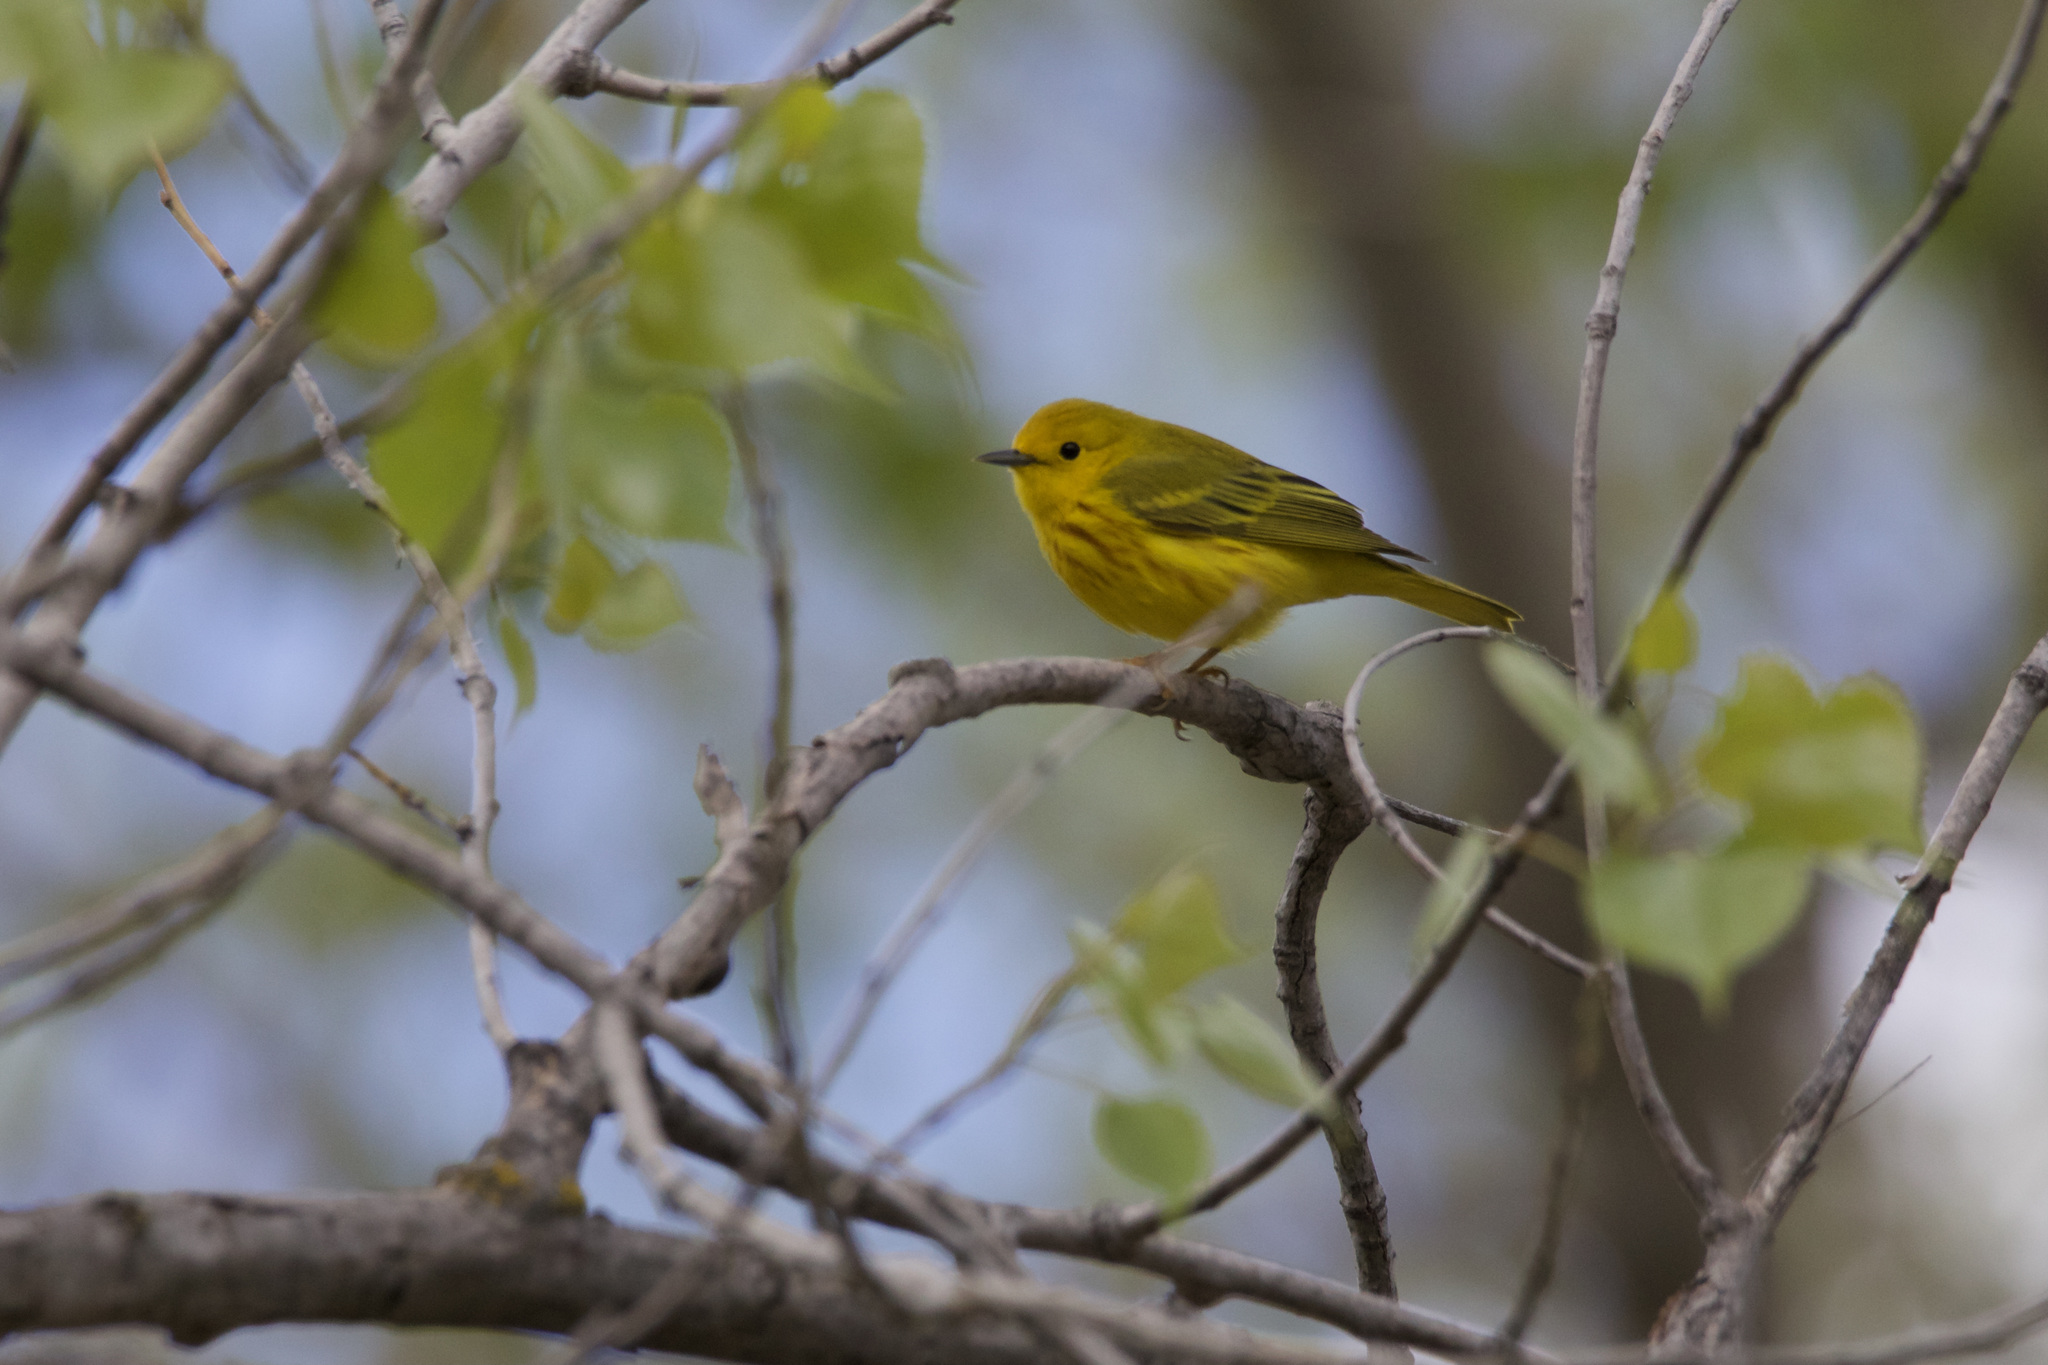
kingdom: Animalia
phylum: Chordata
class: Aves
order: Passeriformes
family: Parulidae
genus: Setophaga
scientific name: Setophaga petechia
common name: Yellow warbler
